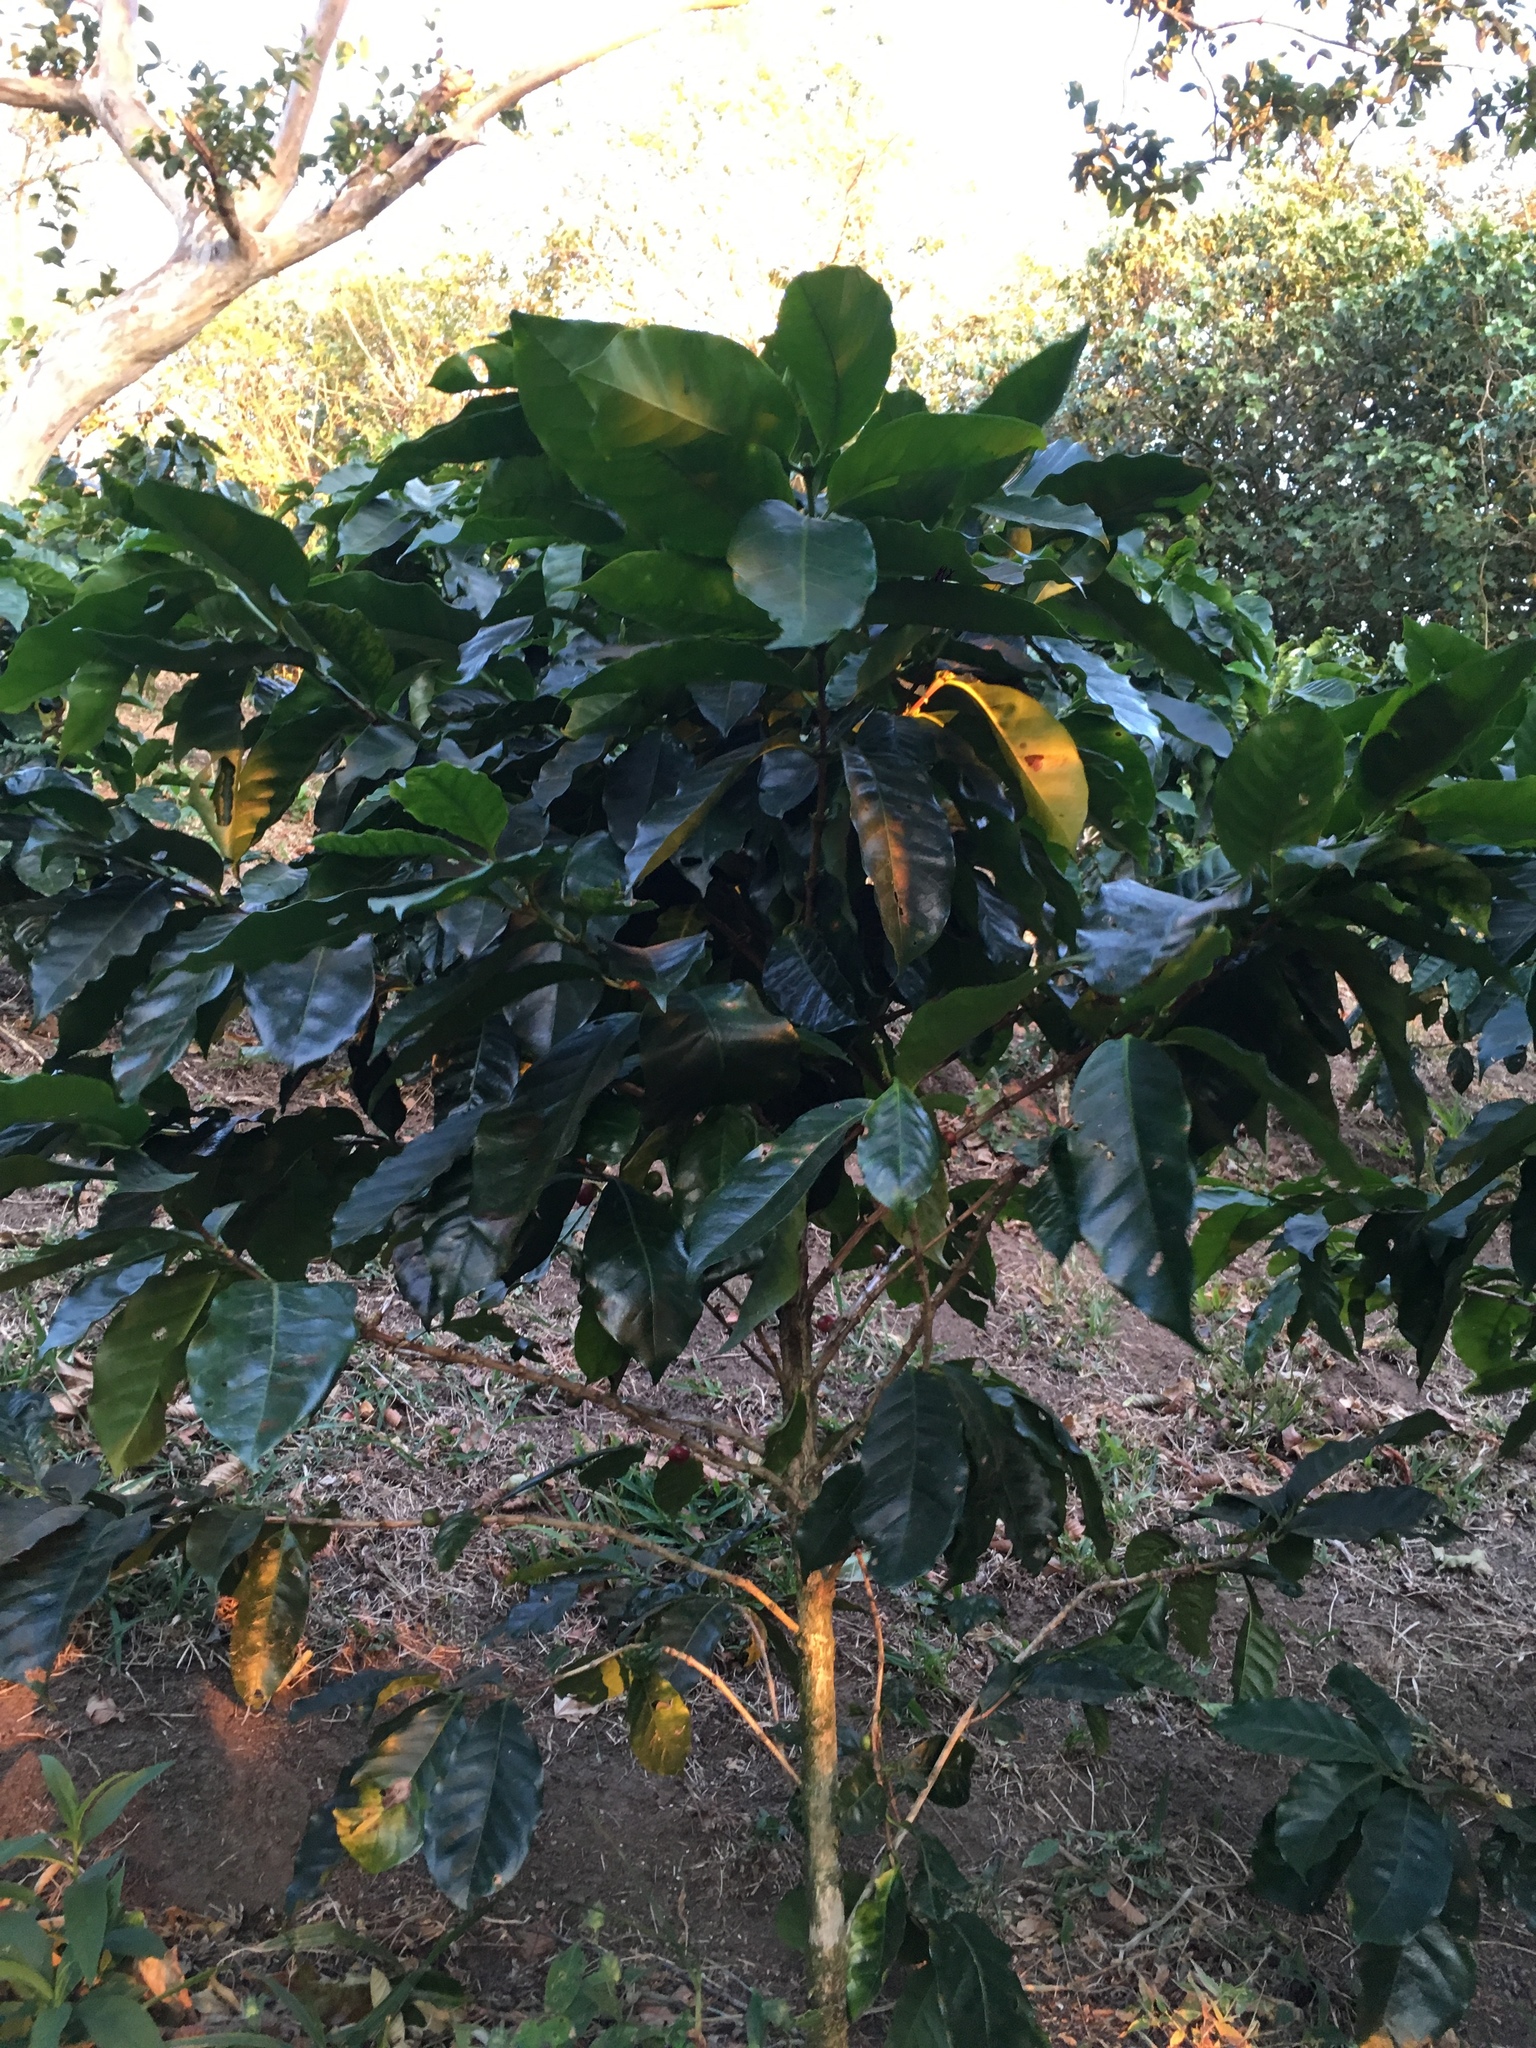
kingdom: Plantae
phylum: Tracheophyta
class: Magnoliopsida
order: Gentianales
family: Rubiaceae
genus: Coffea
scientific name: Coffea arabica
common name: Coffee
